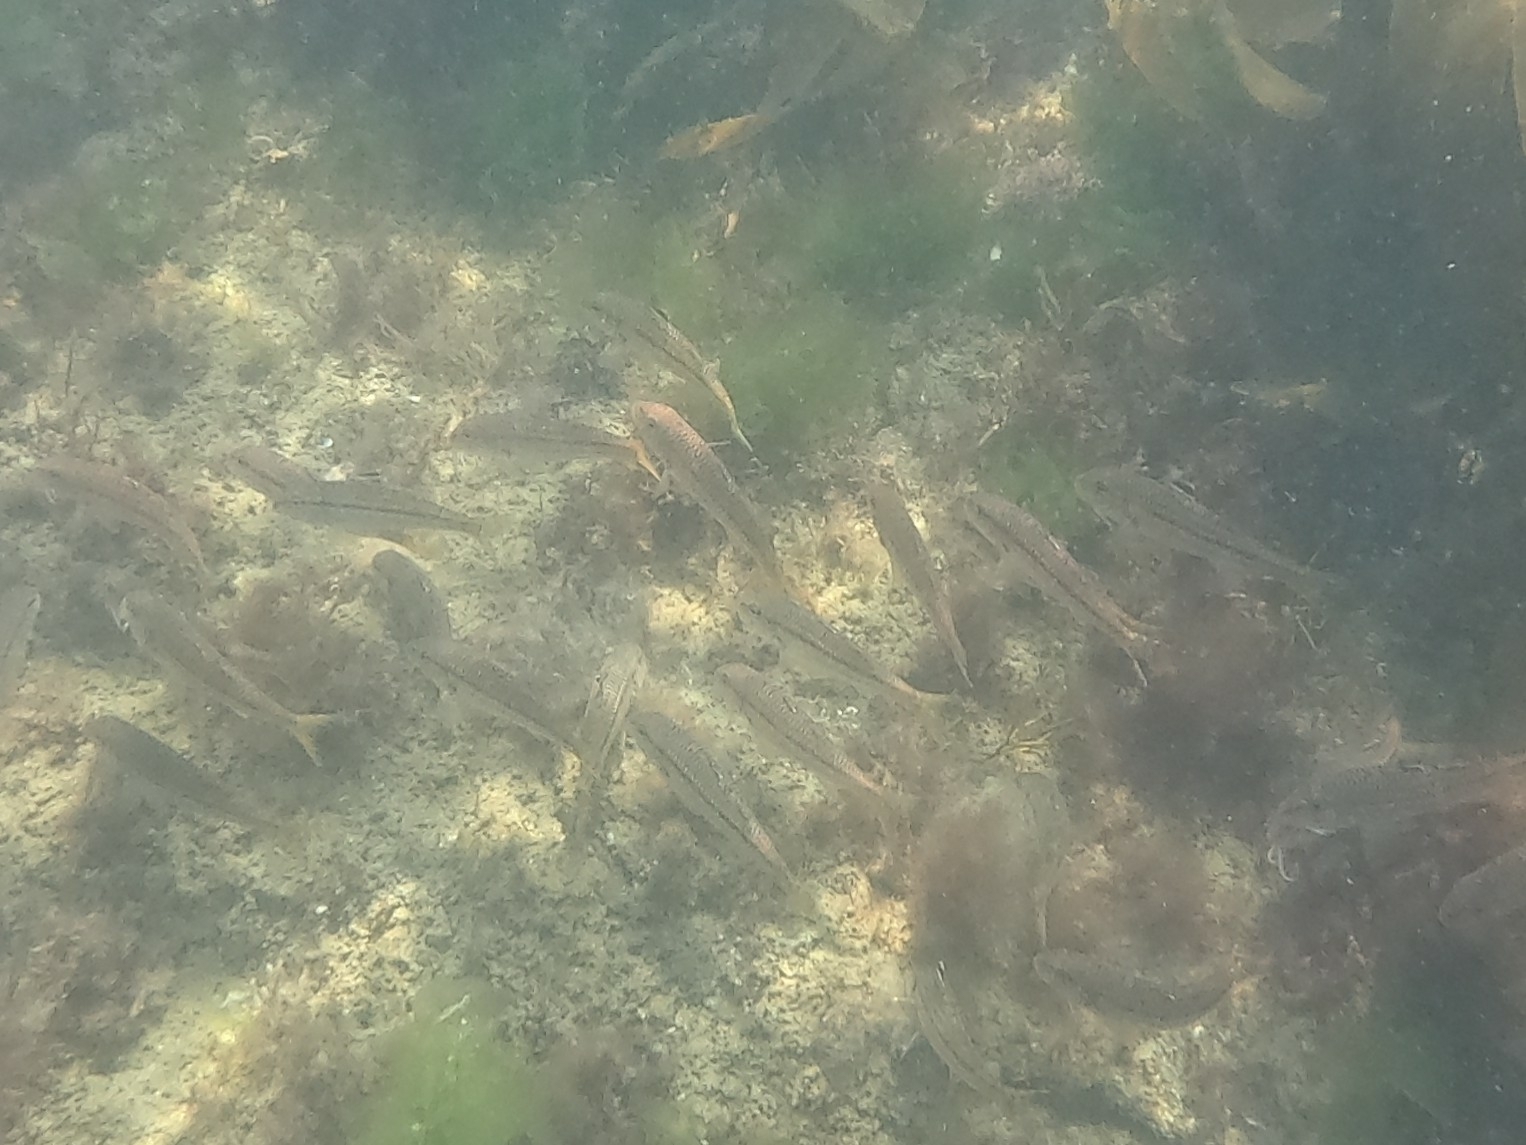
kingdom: Animalia
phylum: Chordata
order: Perciformes
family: Mullidae
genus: Mullus
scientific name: Mullus surmuletus
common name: Red mullet
